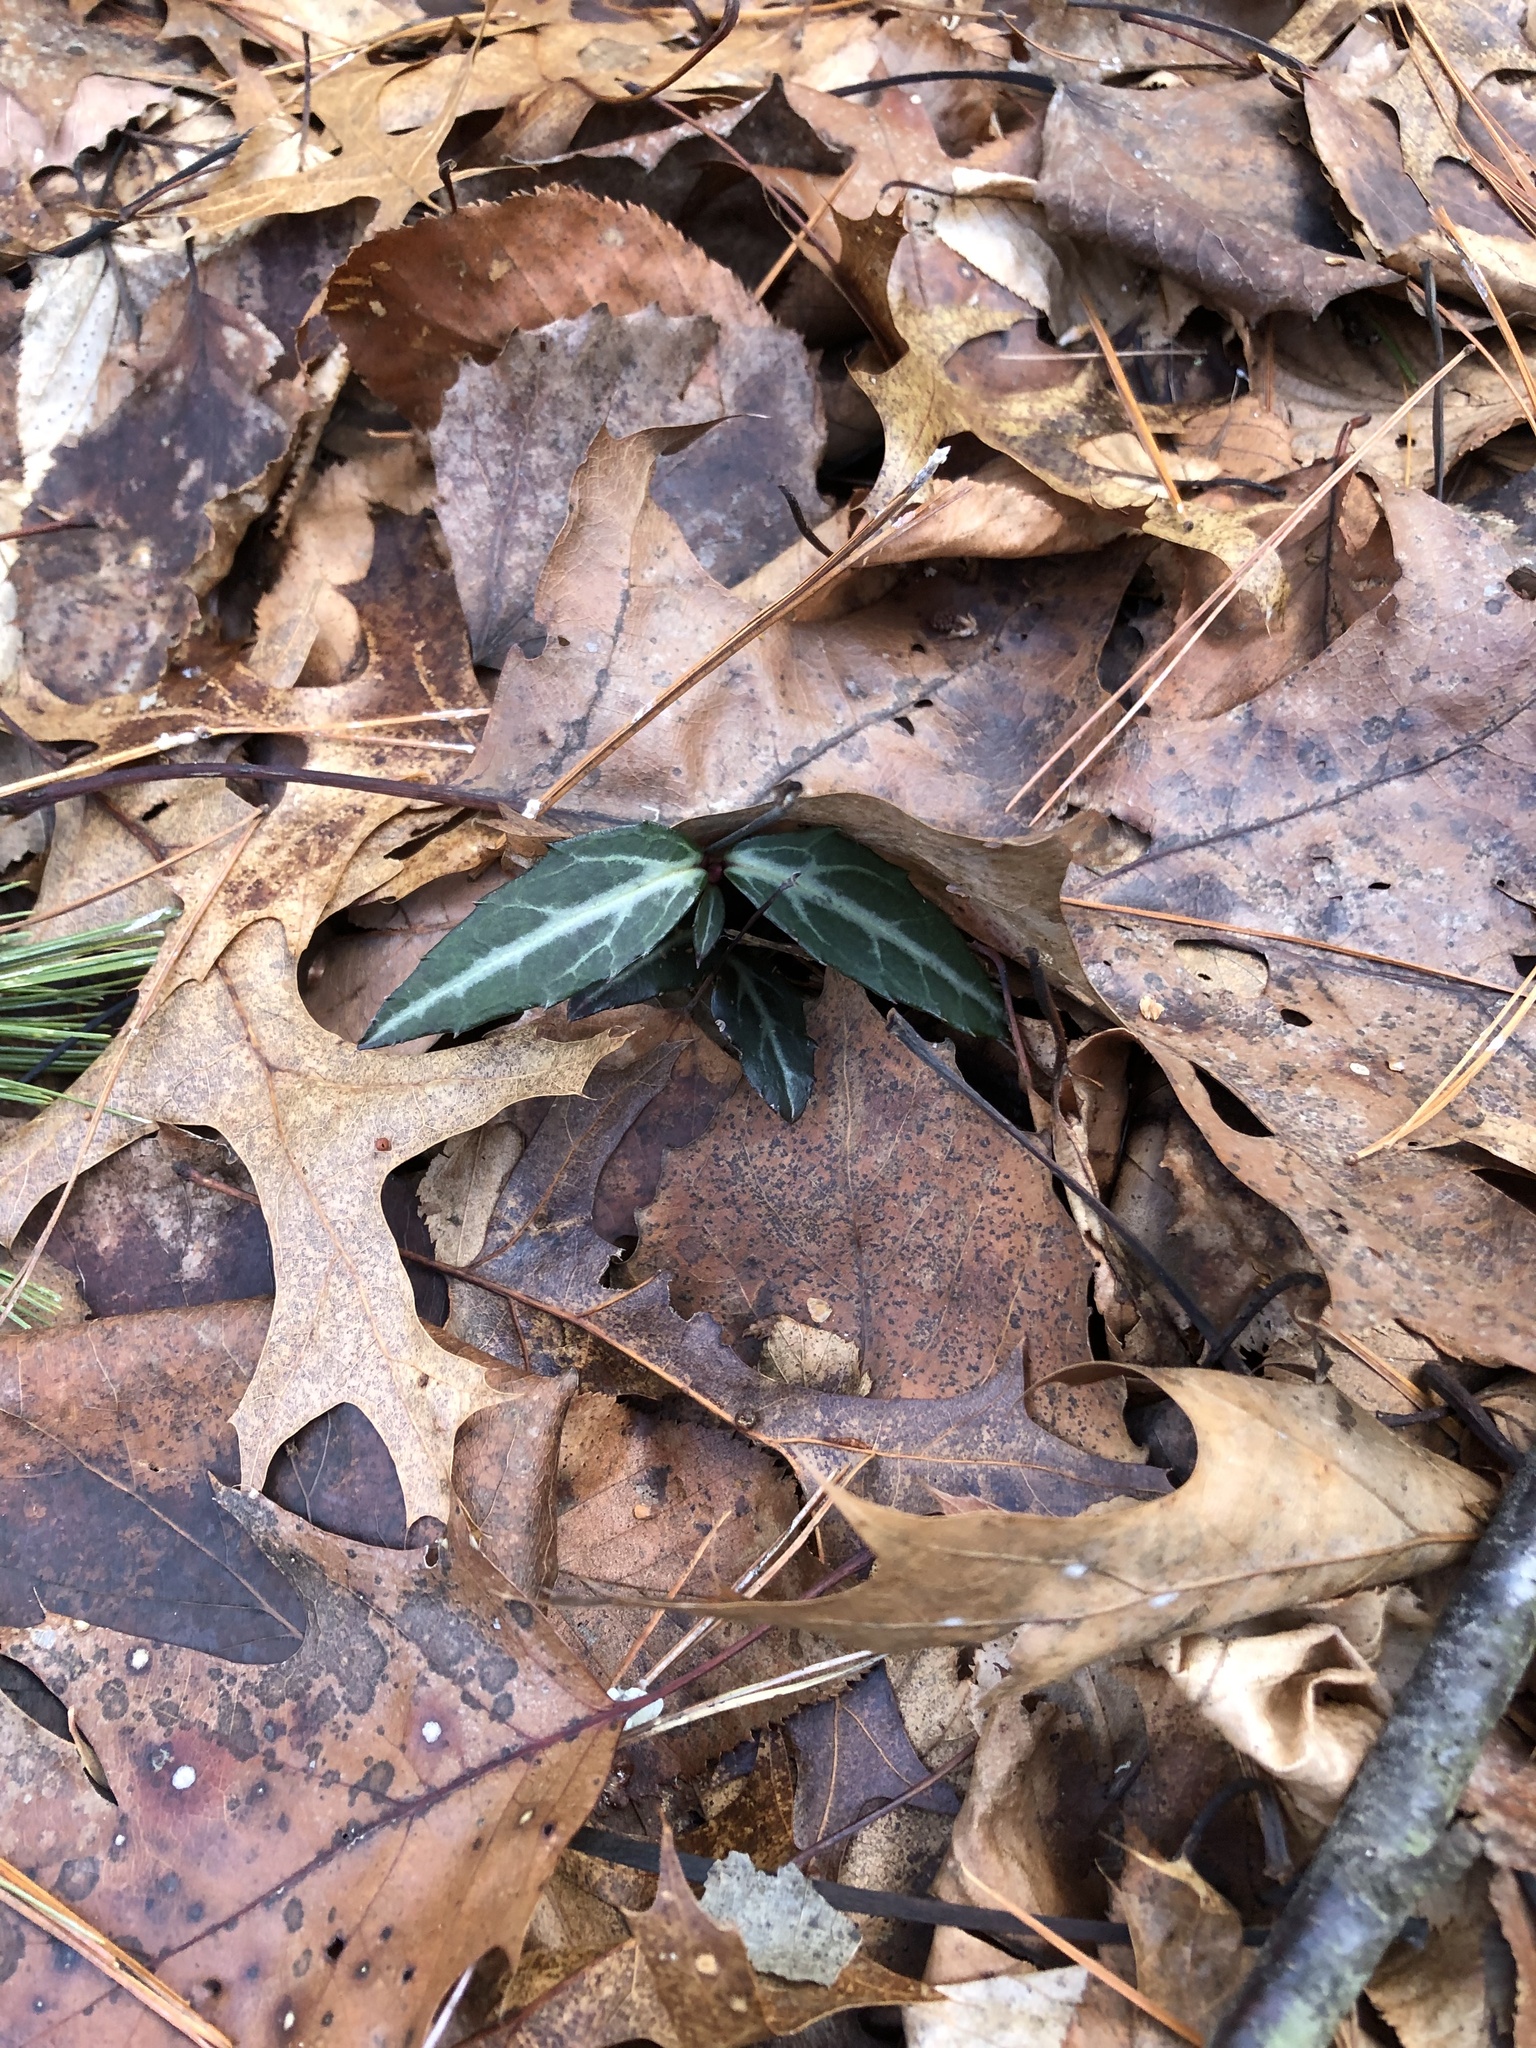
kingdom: Plantae
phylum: Tracheophyta
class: Magnoliopsida
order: Ericales
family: Ericaceae
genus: Chimaphila
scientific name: Chimaphila maculata
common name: Spotted pipsissewa
